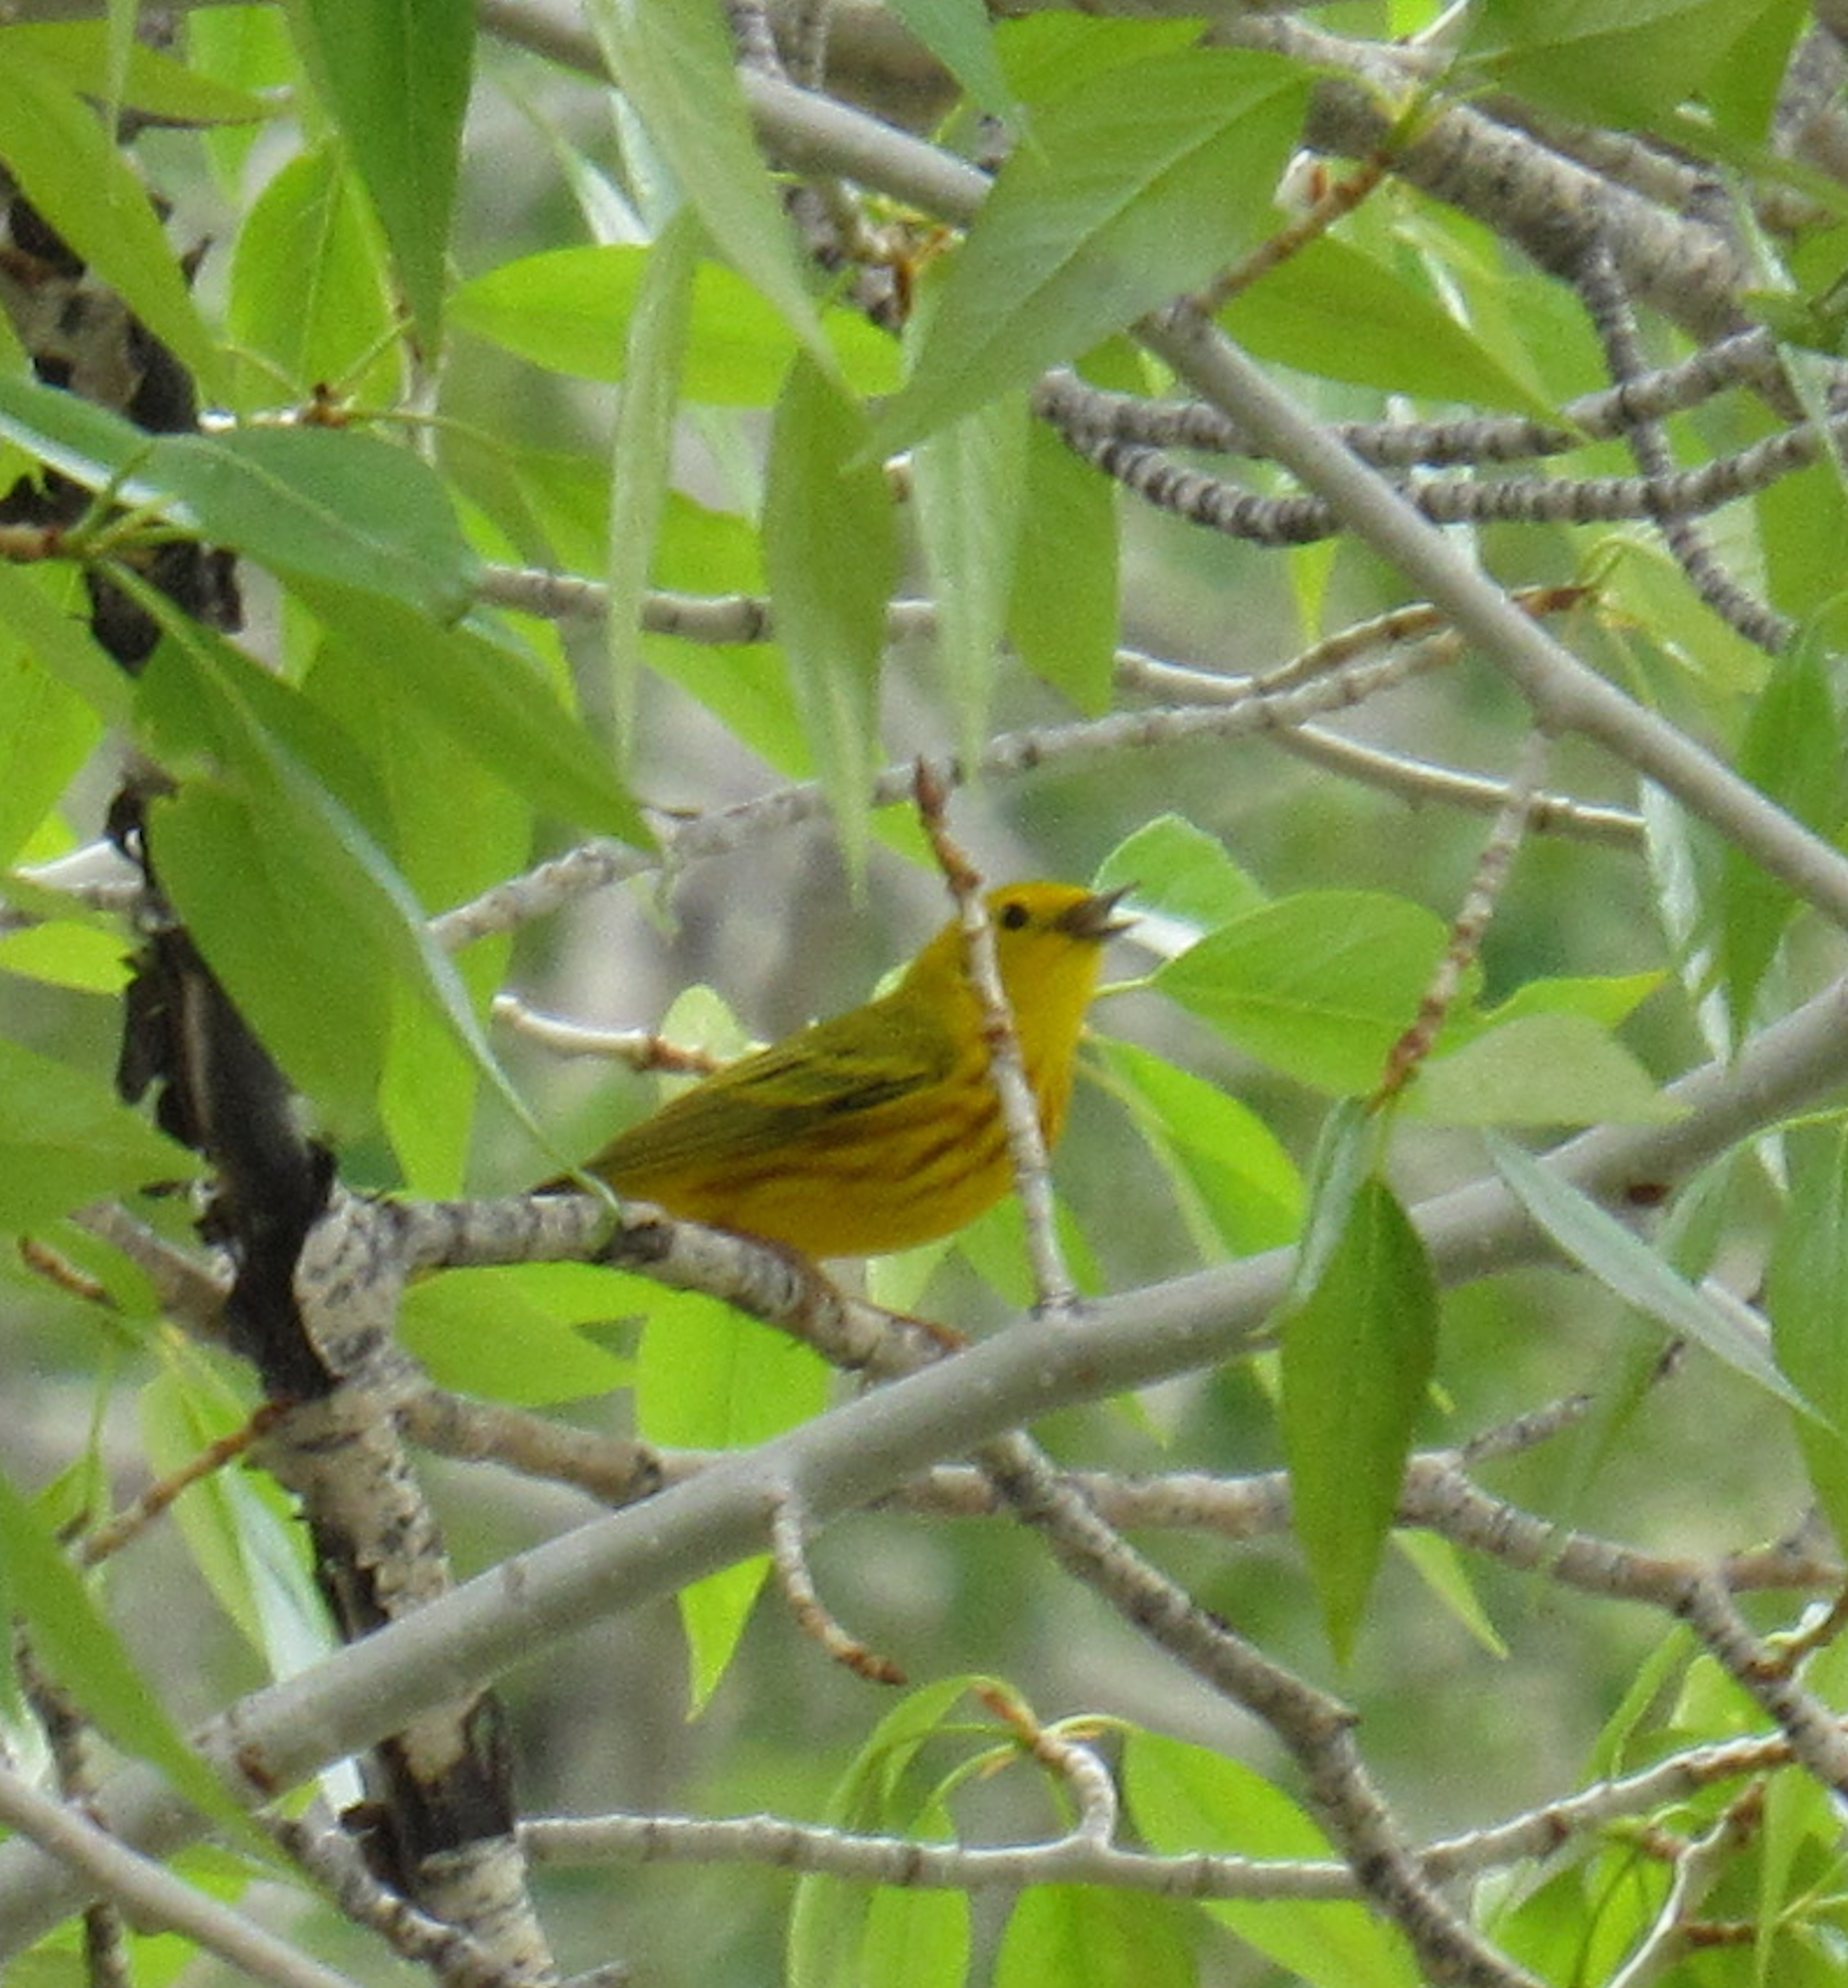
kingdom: Animalia
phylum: Chordata
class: Aves
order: Passeriformes
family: Parulidae
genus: Setophaga
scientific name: Setophaga petechia
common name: Yellow warbler
